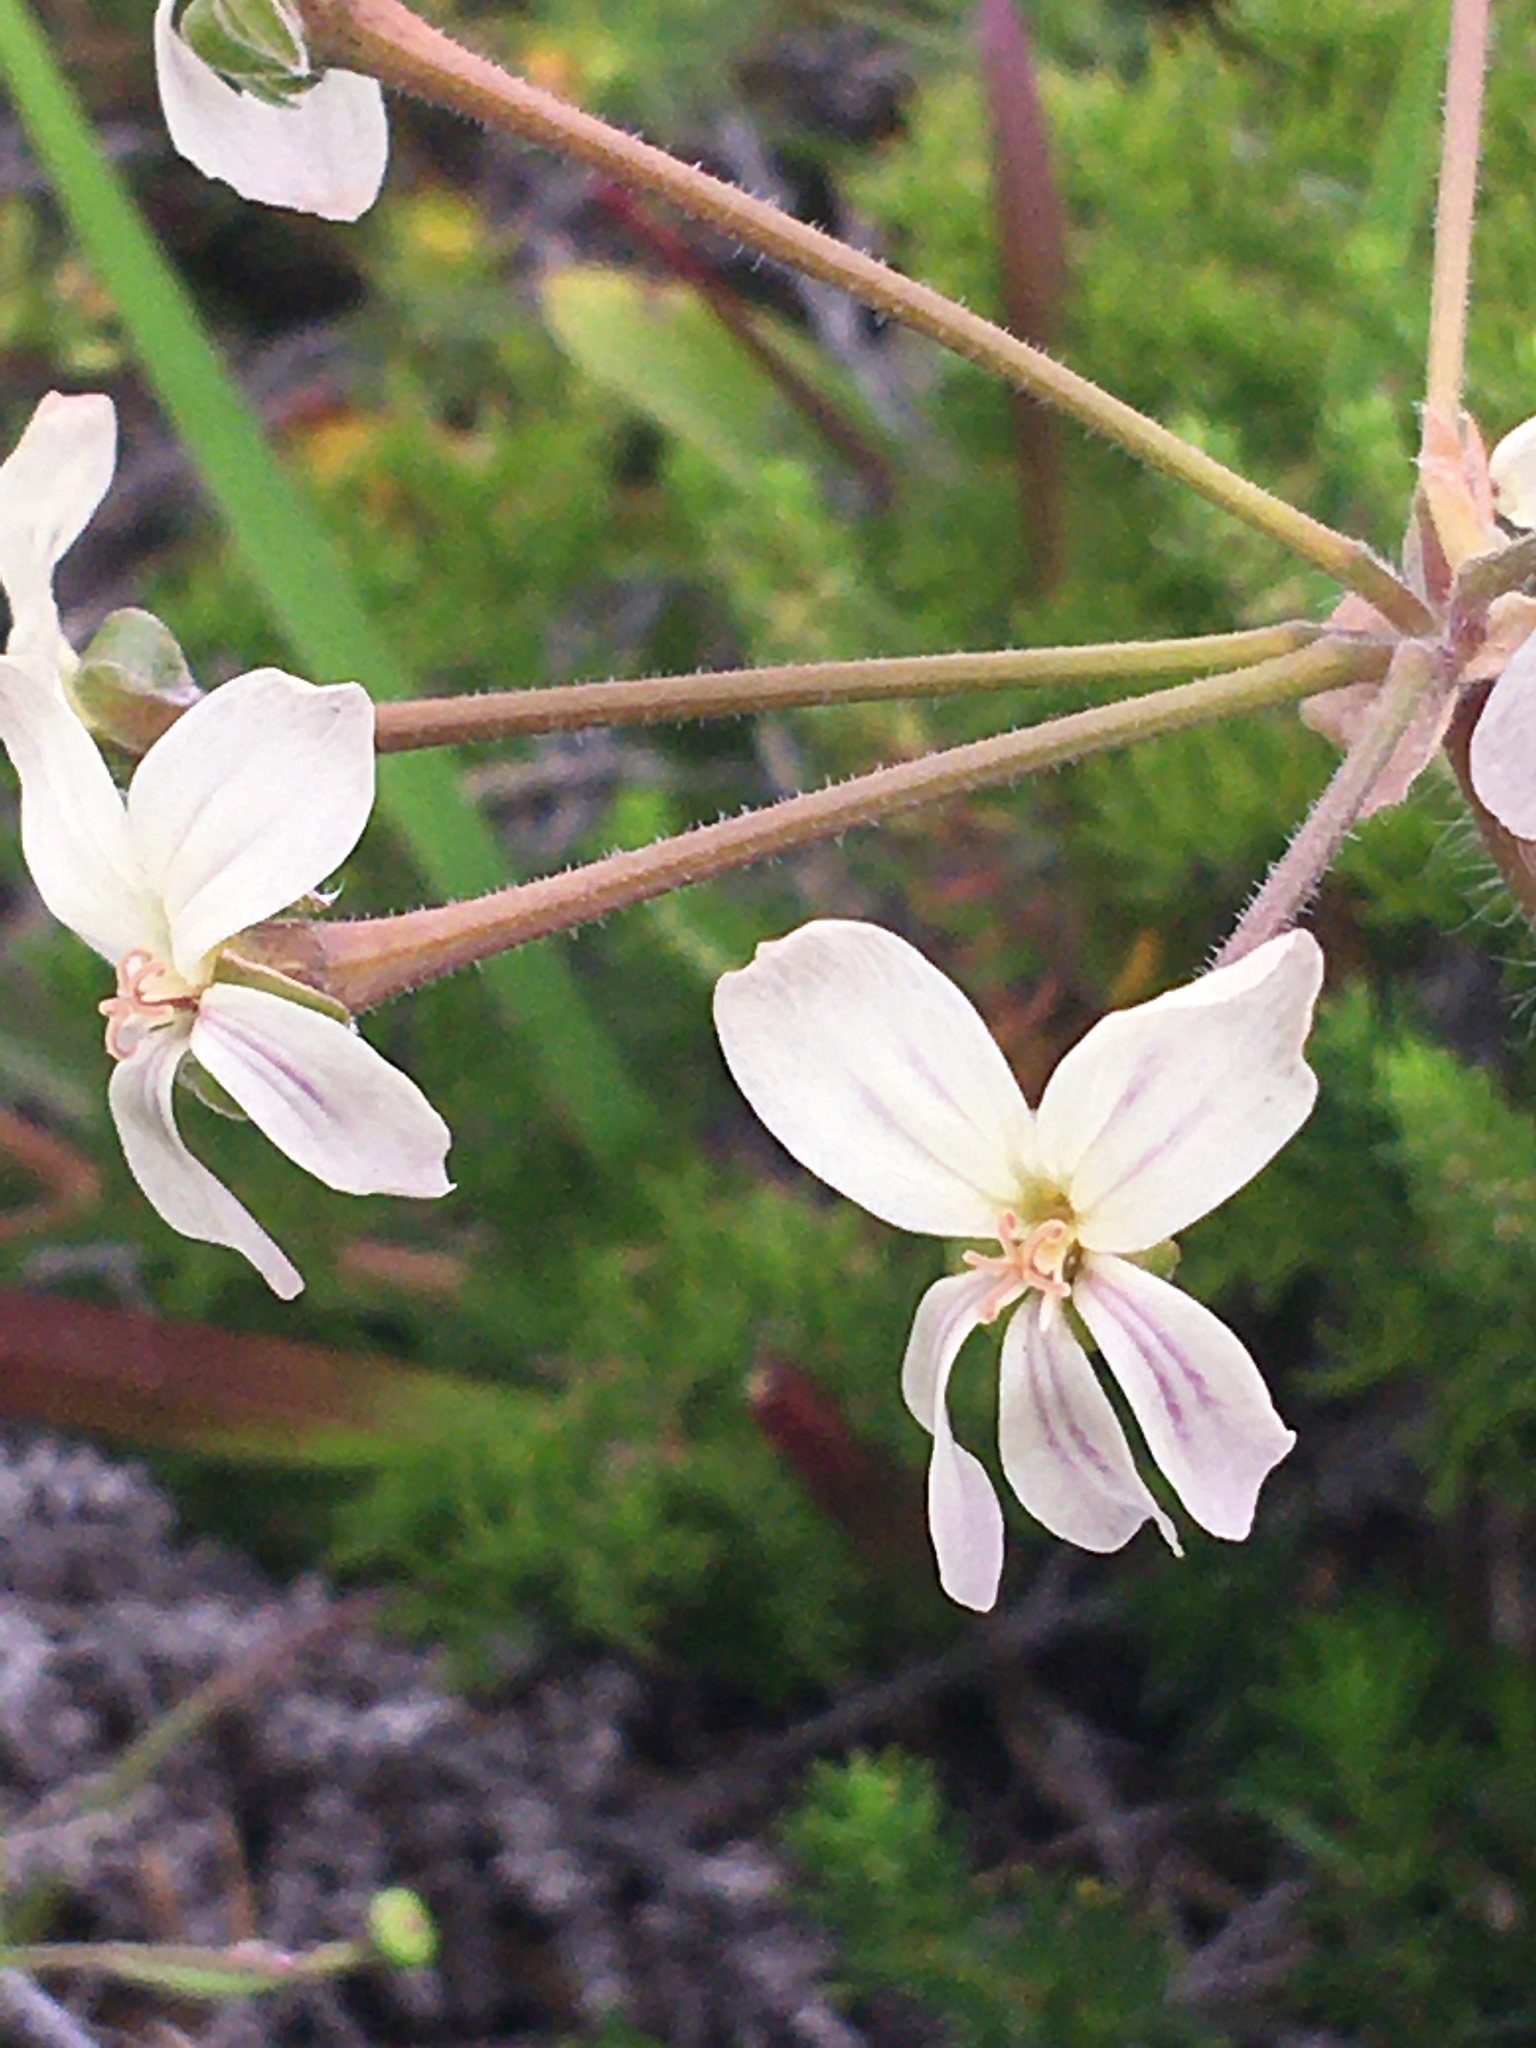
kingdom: Plantae
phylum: Tracheophyta
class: Magnoliopsida
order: Geraniales
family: Geraniaceae
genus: Pelargonium
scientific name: Pelargonium triste
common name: Night-scent pelargonium
